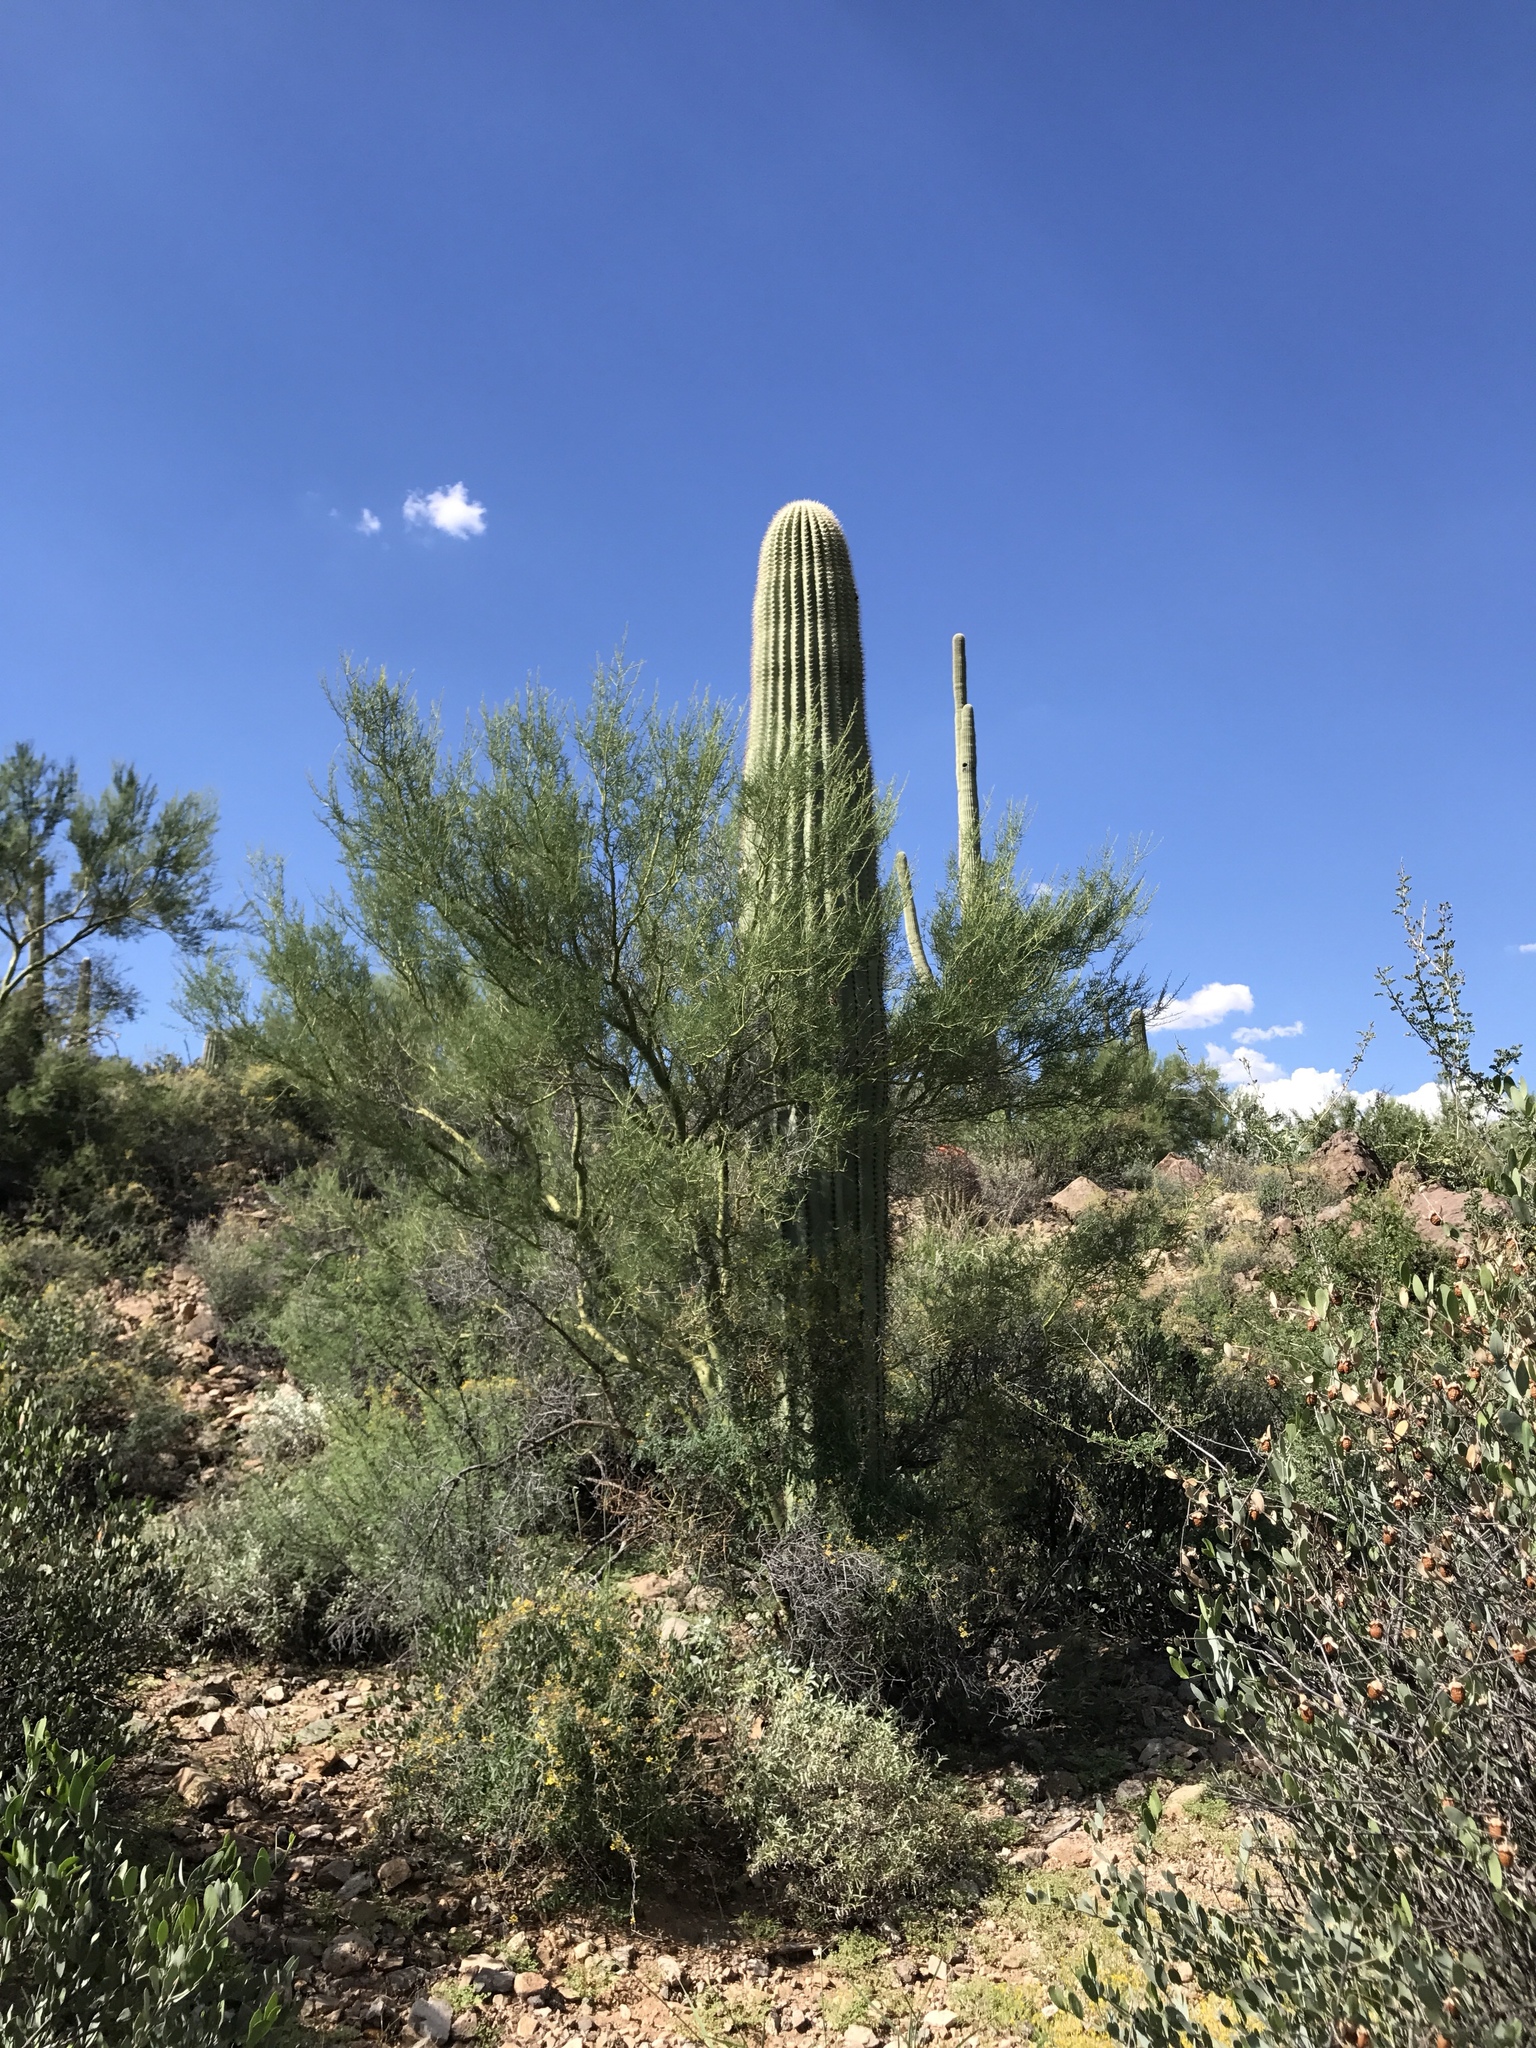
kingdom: Plantae
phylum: Tracheophyta
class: Magnoliopsida
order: Caryophyllales
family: Cactaceae
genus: Carnegiea
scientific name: Carnegiea gigantea
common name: Saguaro
